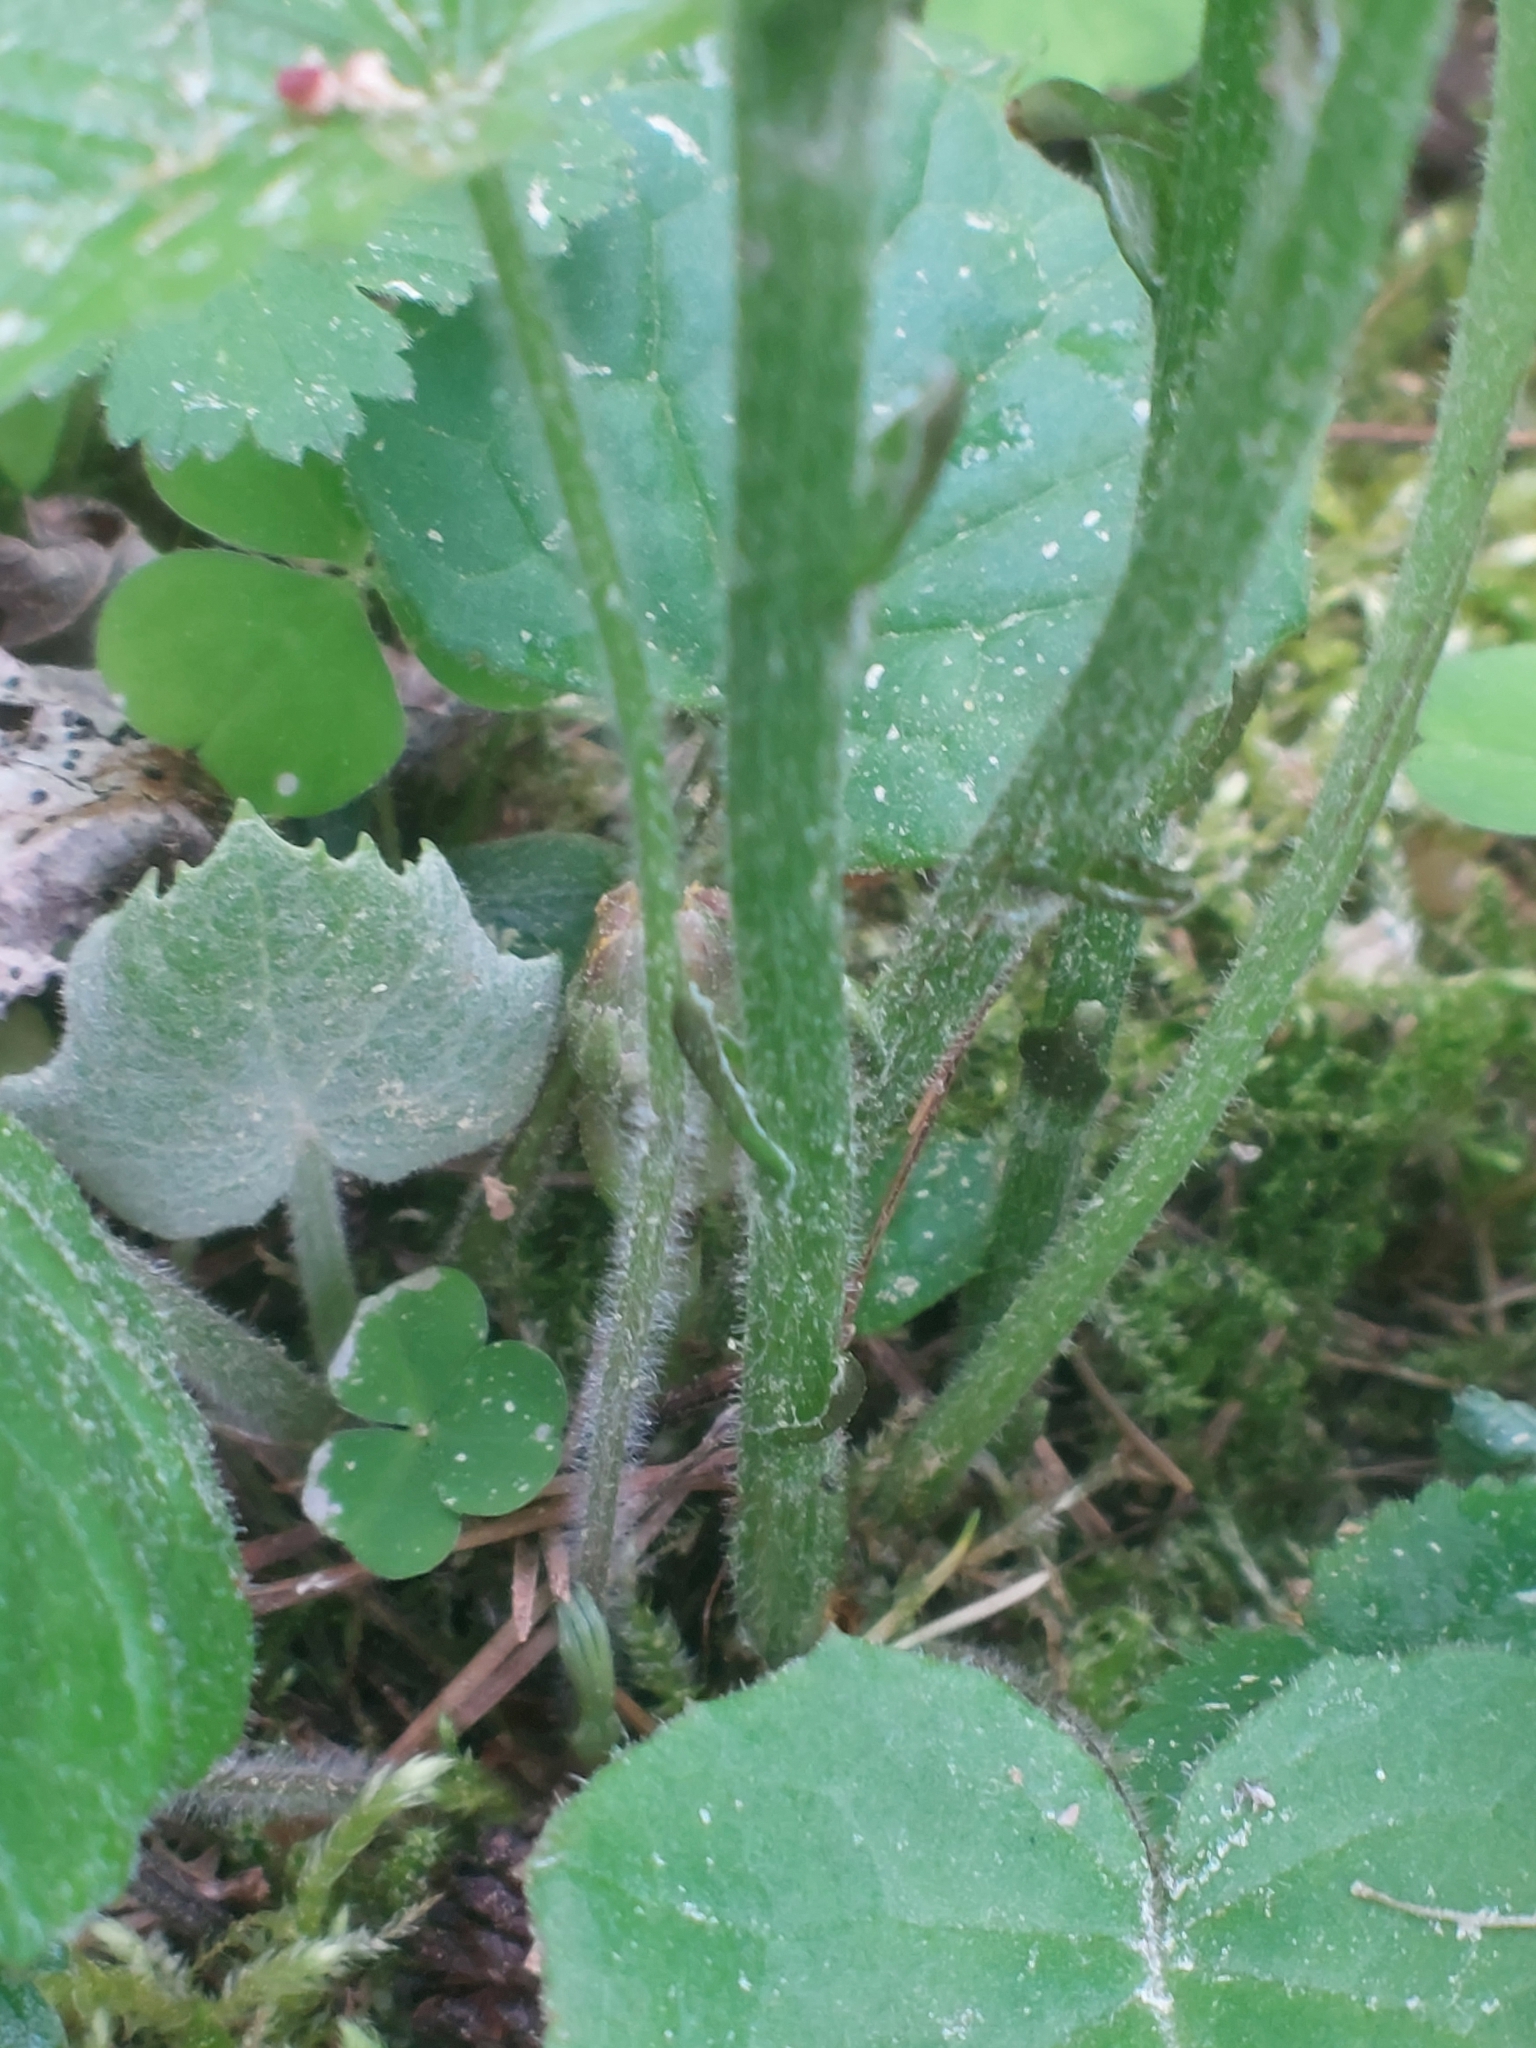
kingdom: Plantae
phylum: Tracheophyta
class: Magnoliopsida
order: Asterales
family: Asteraceae
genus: Tussilago
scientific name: Tussilago farfara
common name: Coltsfoot
